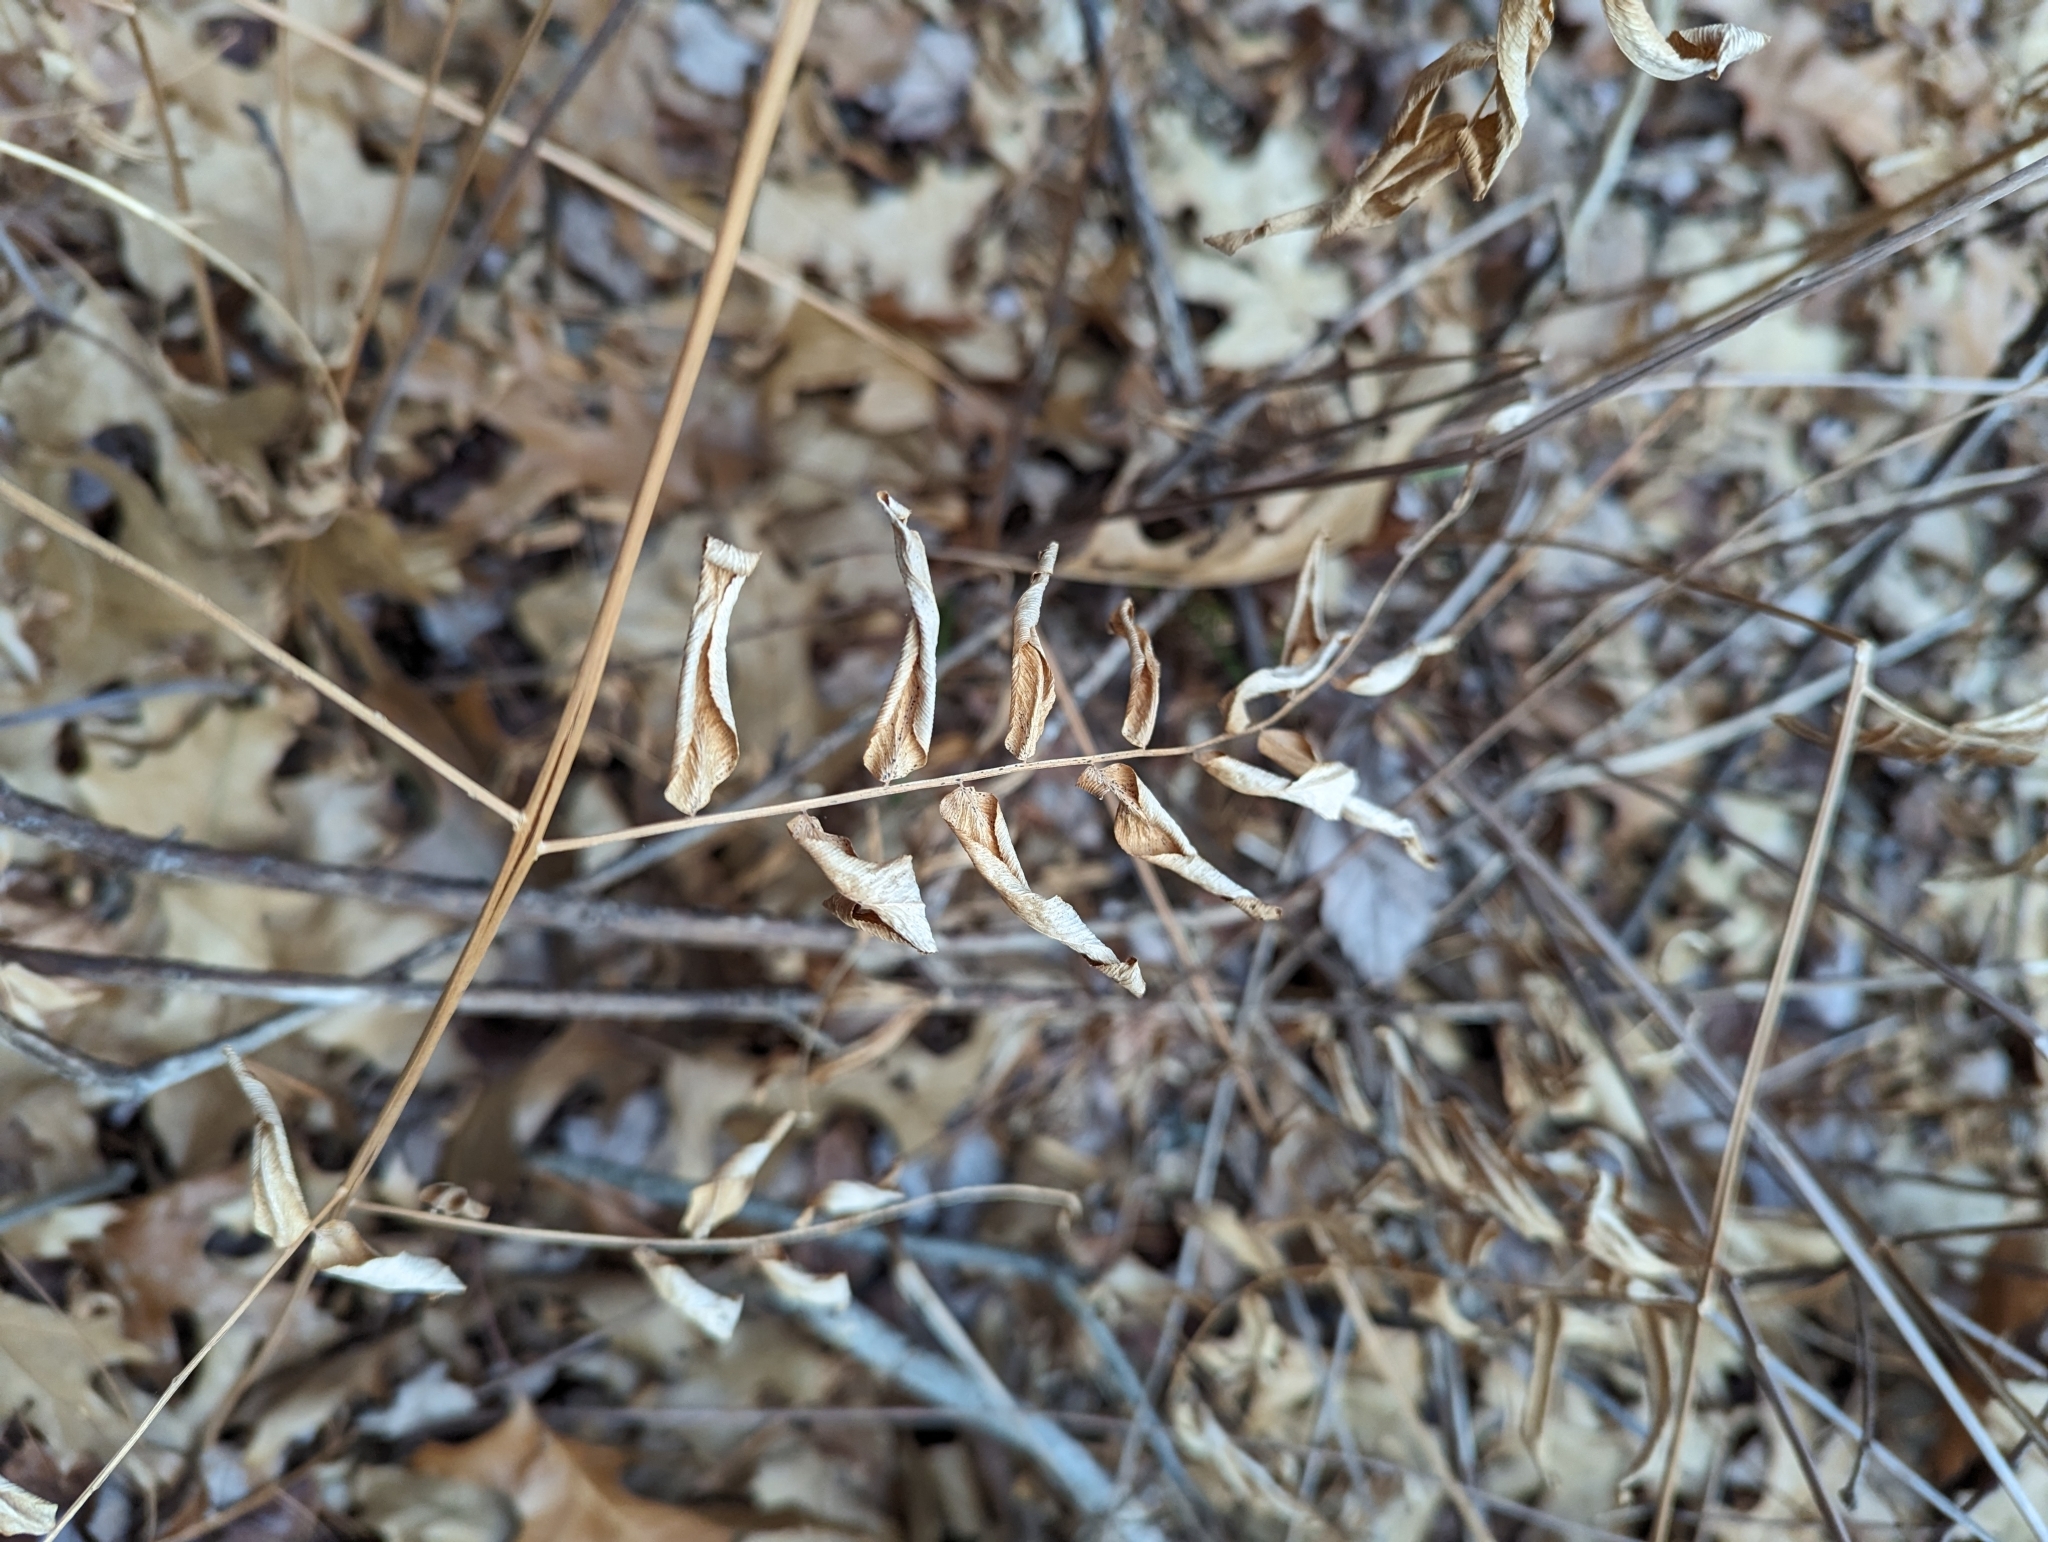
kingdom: Plantae
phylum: Tracheophyta
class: Polypodiopsida
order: Osmundales
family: Osmundaceae
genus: Osmunda
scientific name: Osmunda spectabilis
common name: American royal fern
